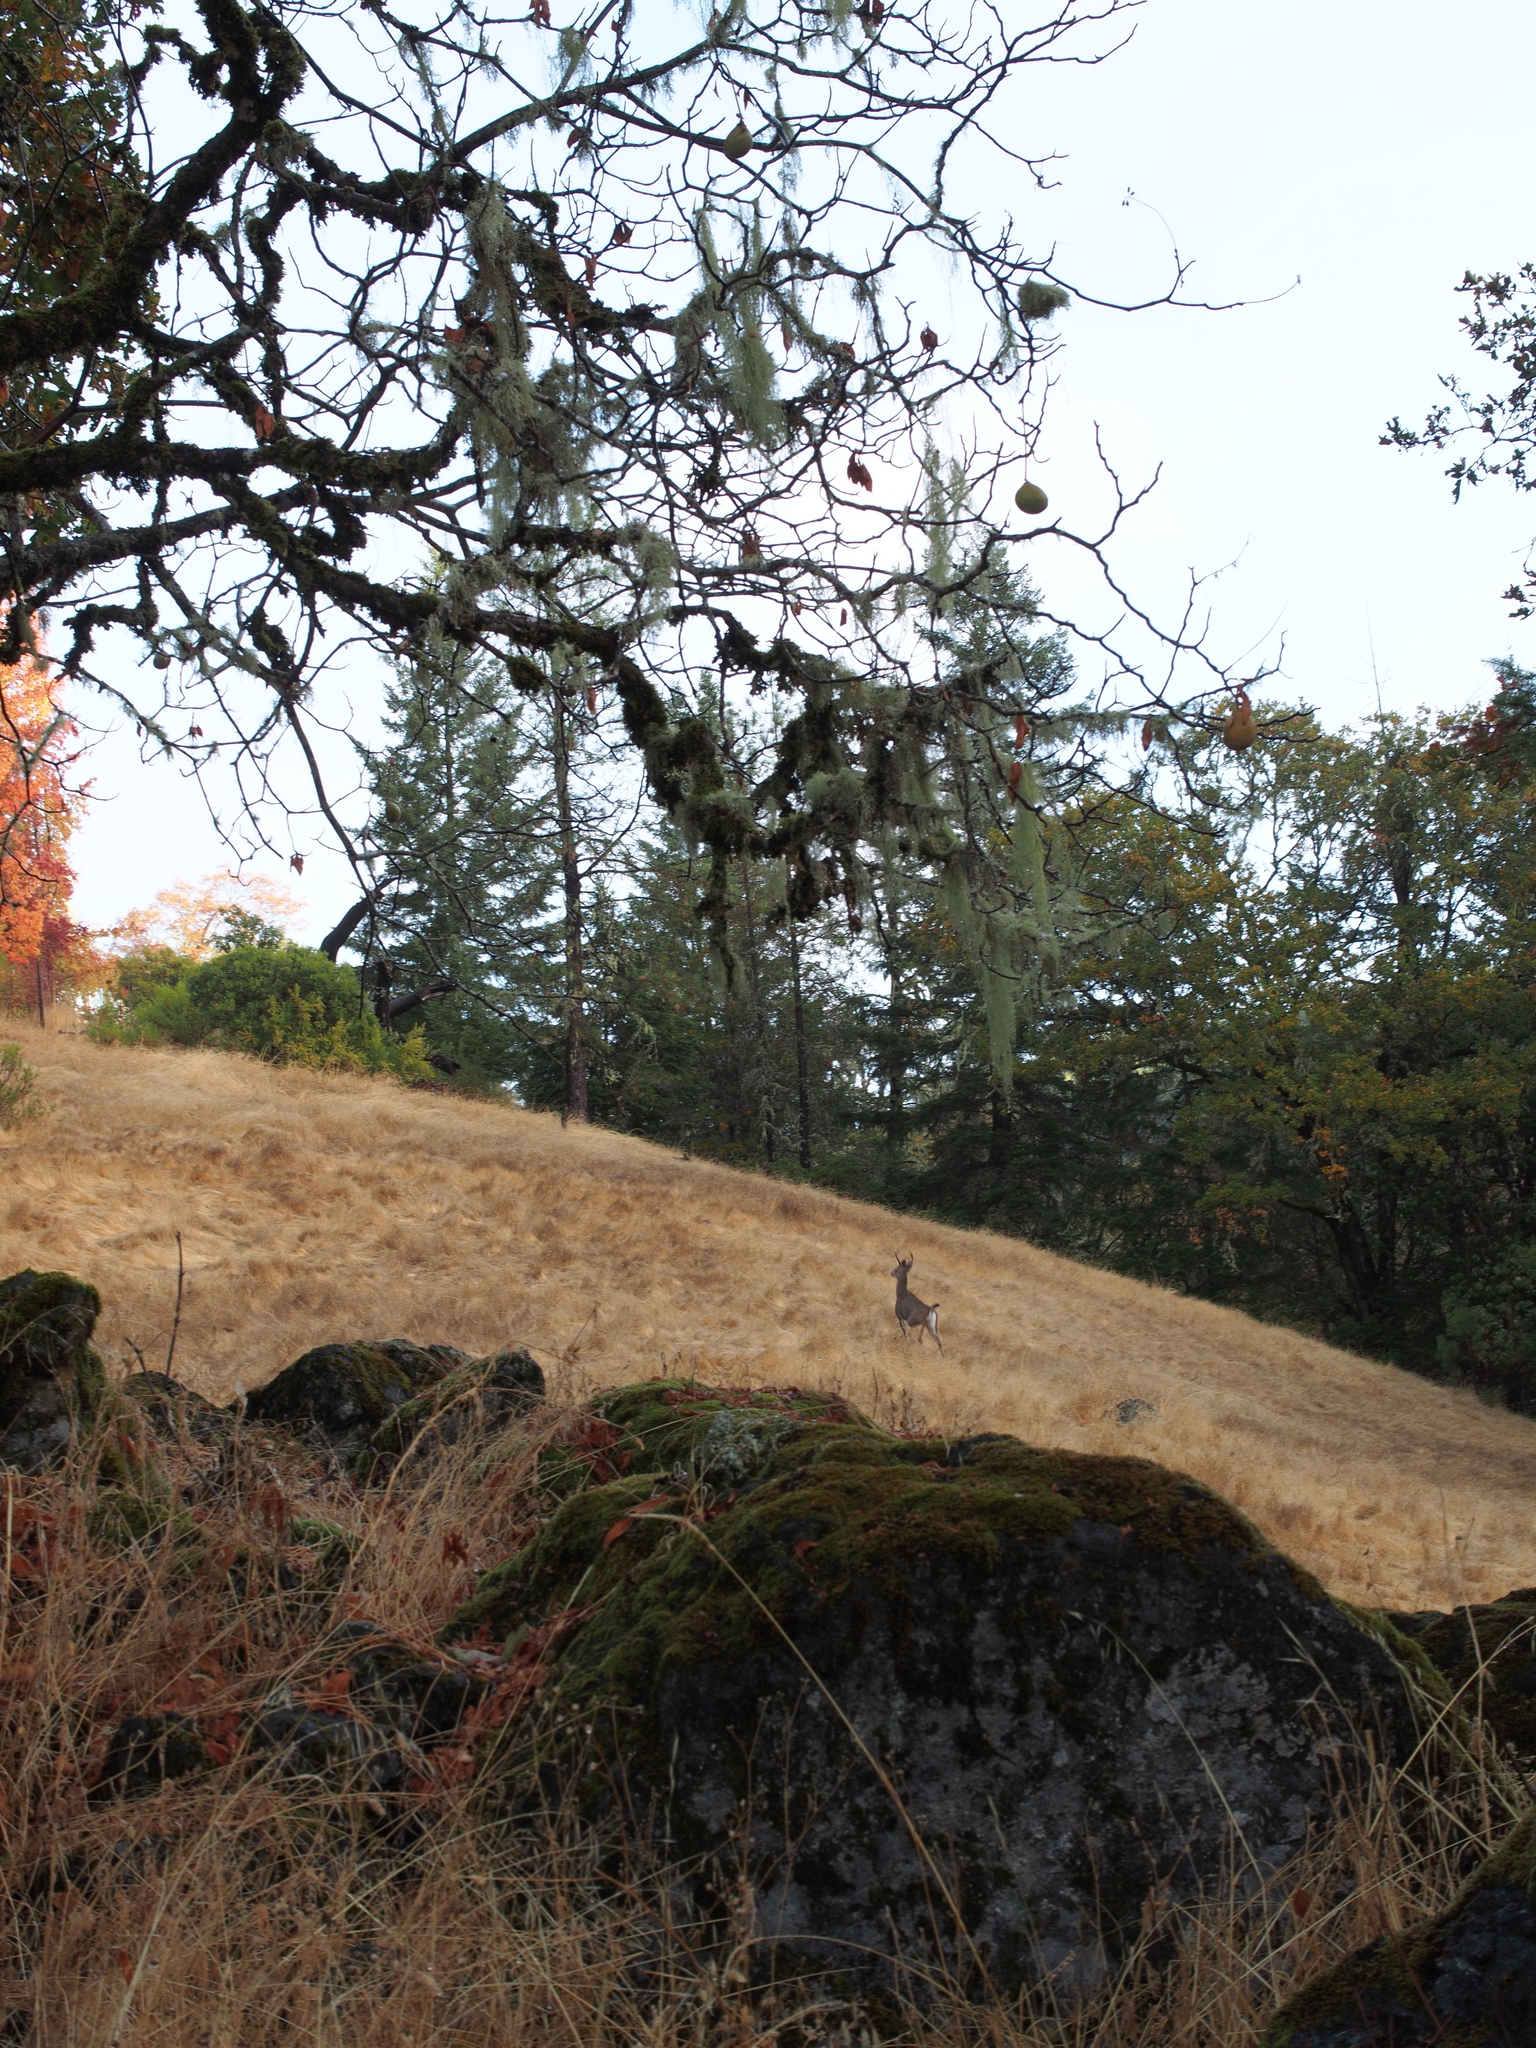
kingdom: Animalia
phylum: Chordata
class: Mammalia
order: Artiodactyla
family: Cervidae
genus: Odocoileus
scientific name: Odocoileus hemionus
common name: Mule deer
